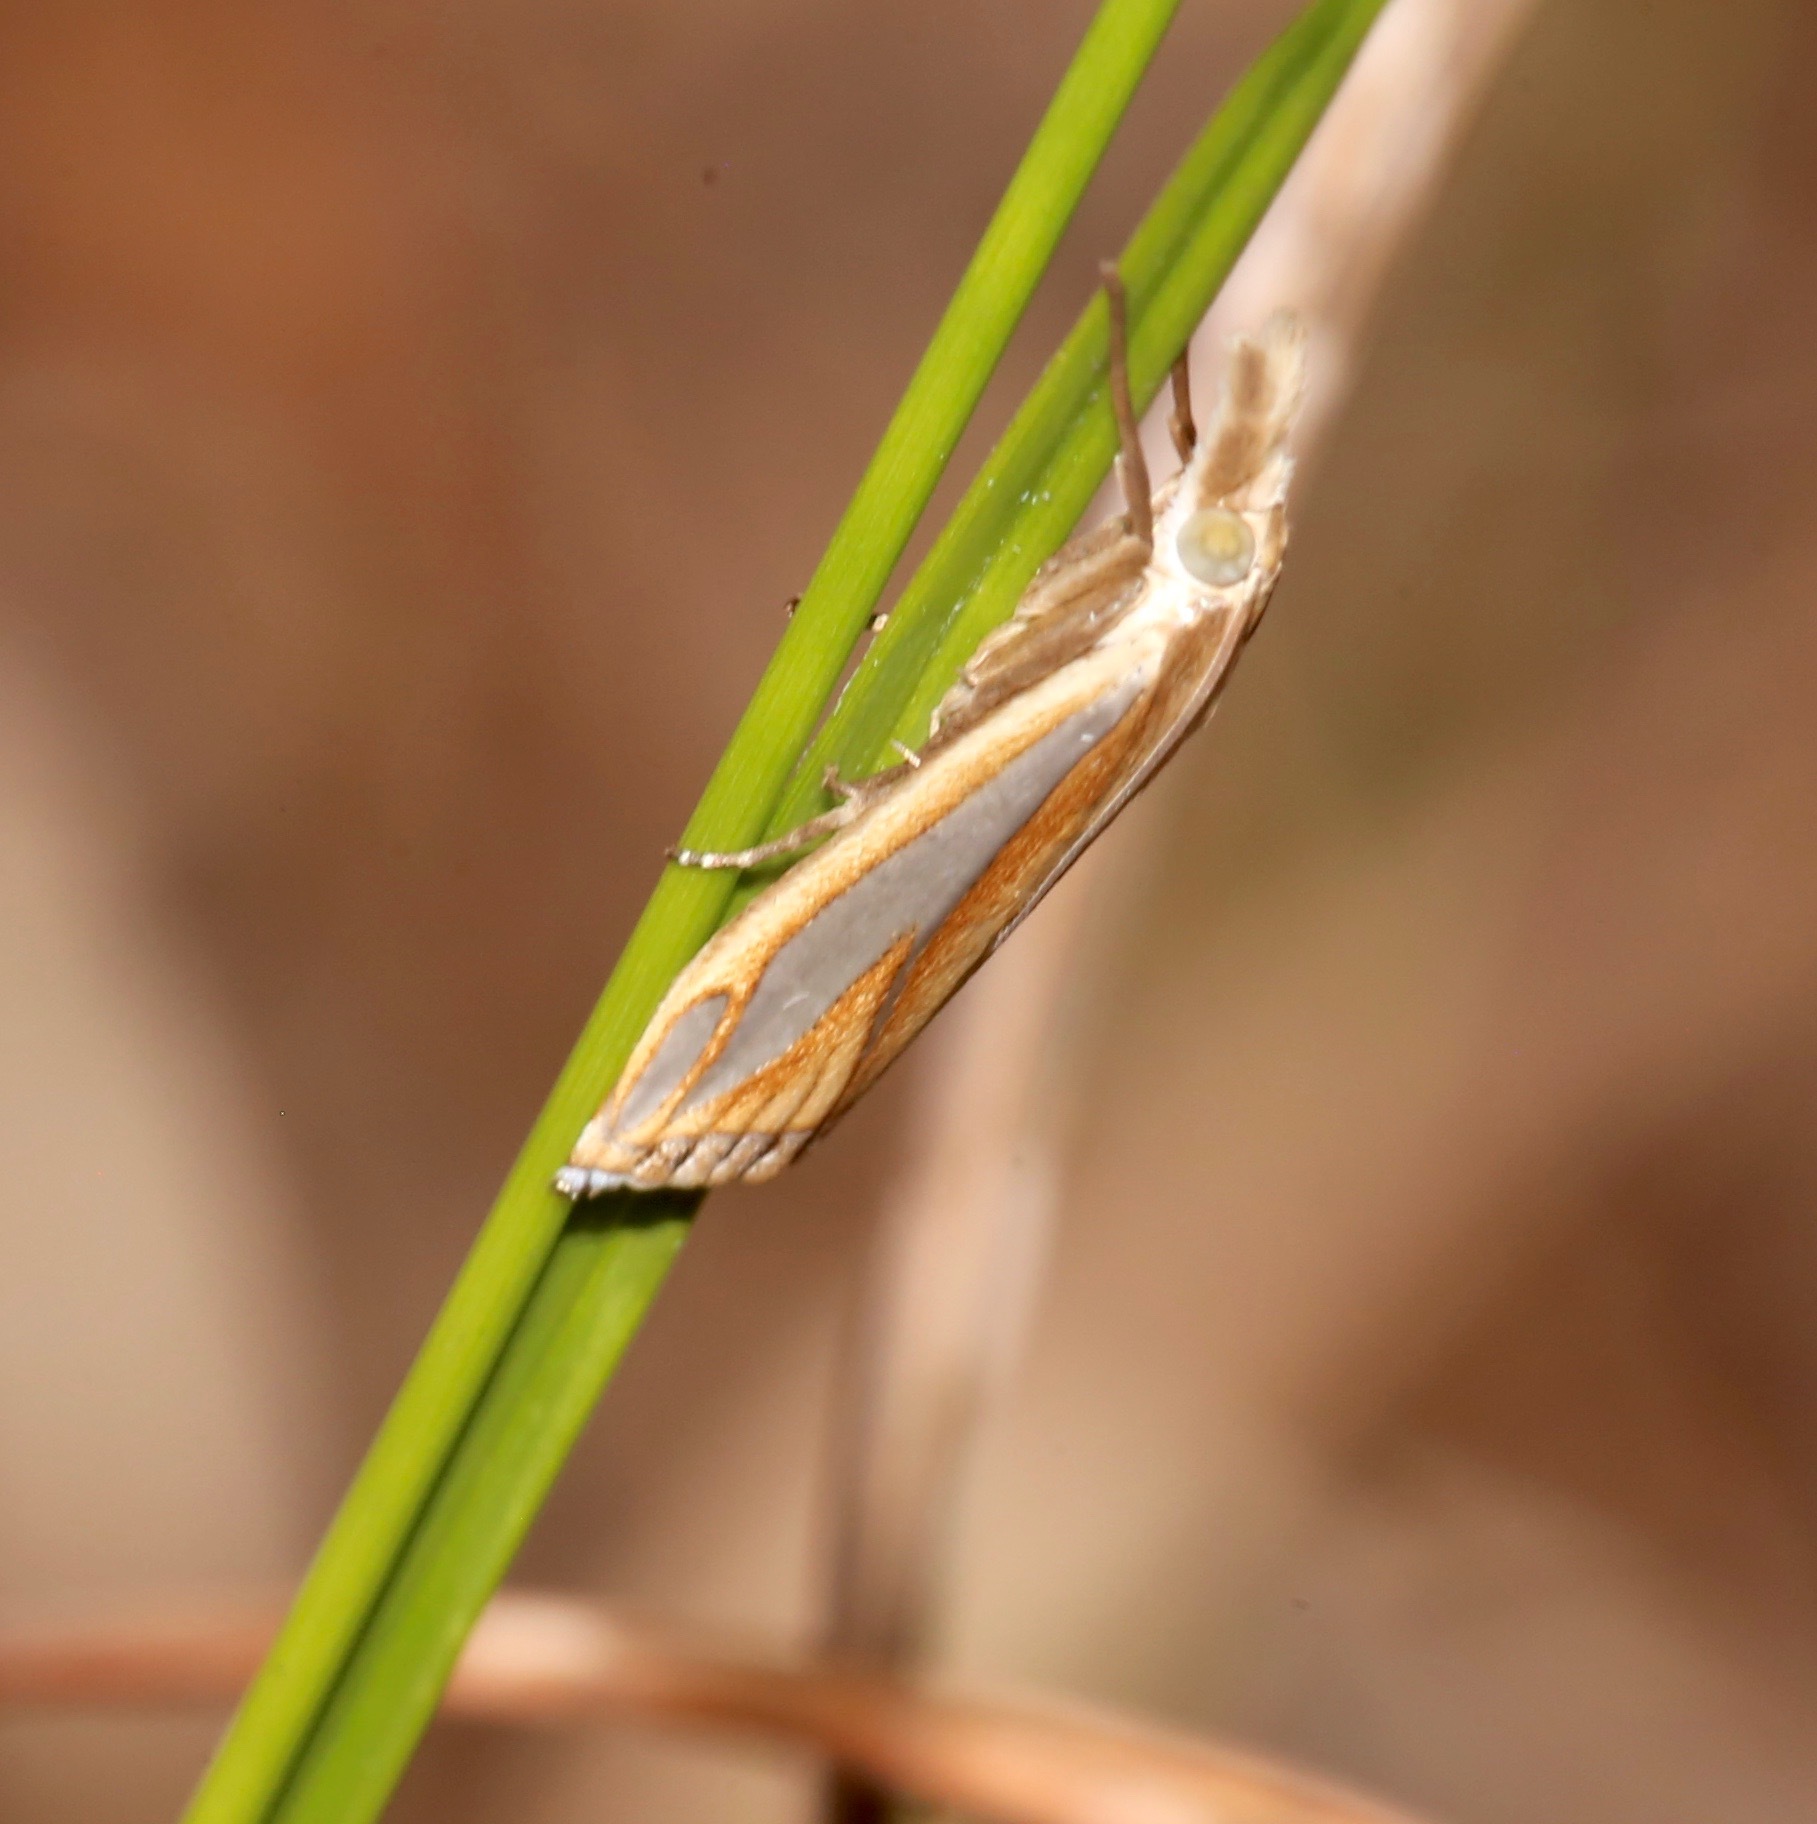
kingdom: Animalia
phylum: Arthropoda
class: Insecta
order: Lepidoptera
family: Crambidae
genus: Crambus
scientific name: Crambus satrapellus
